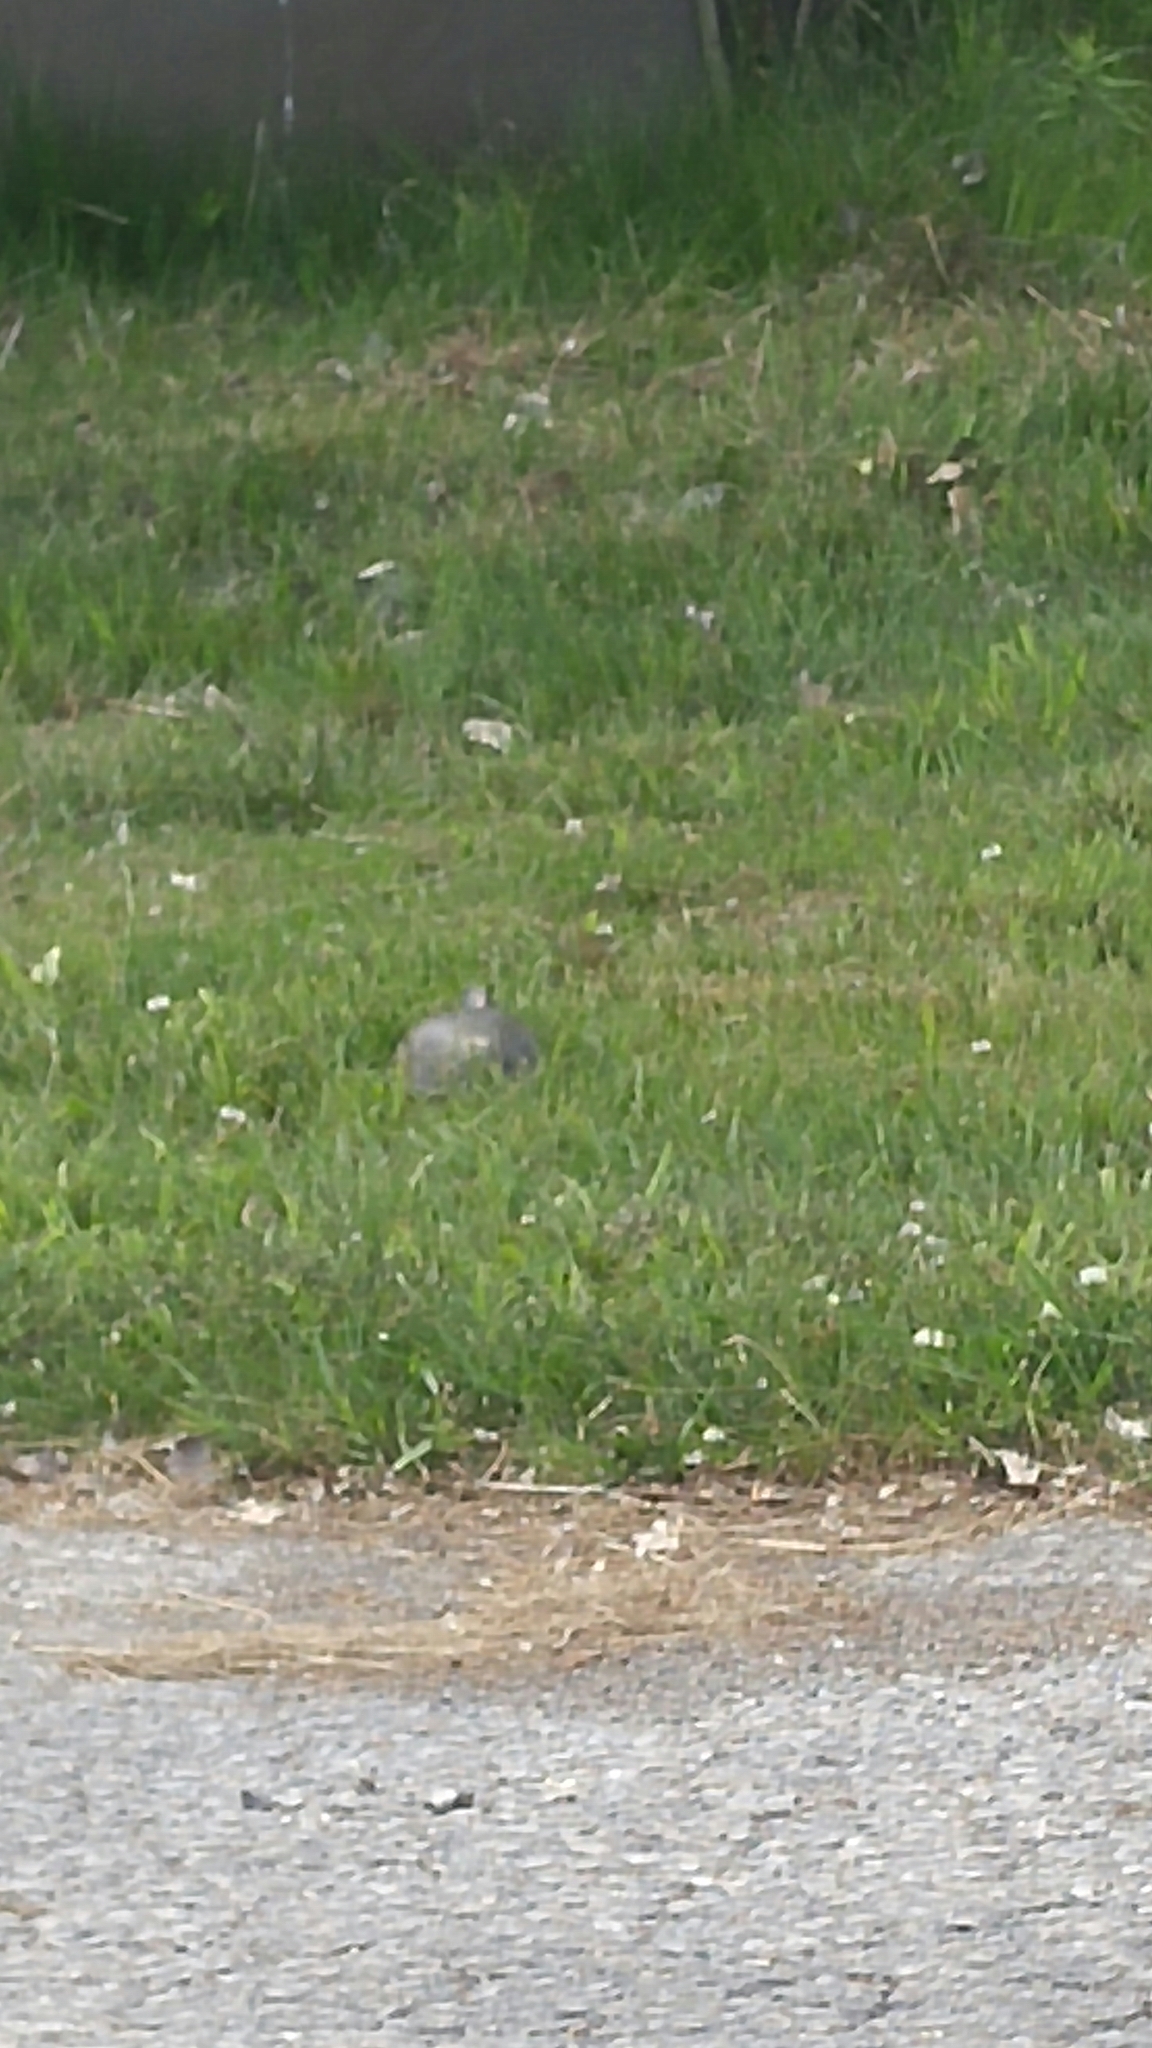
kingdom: Animalia
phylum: Chordata
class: Testudines
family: Emydidae
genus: Chrysemys
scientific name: Chrysemys picta
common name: Painted turtle
